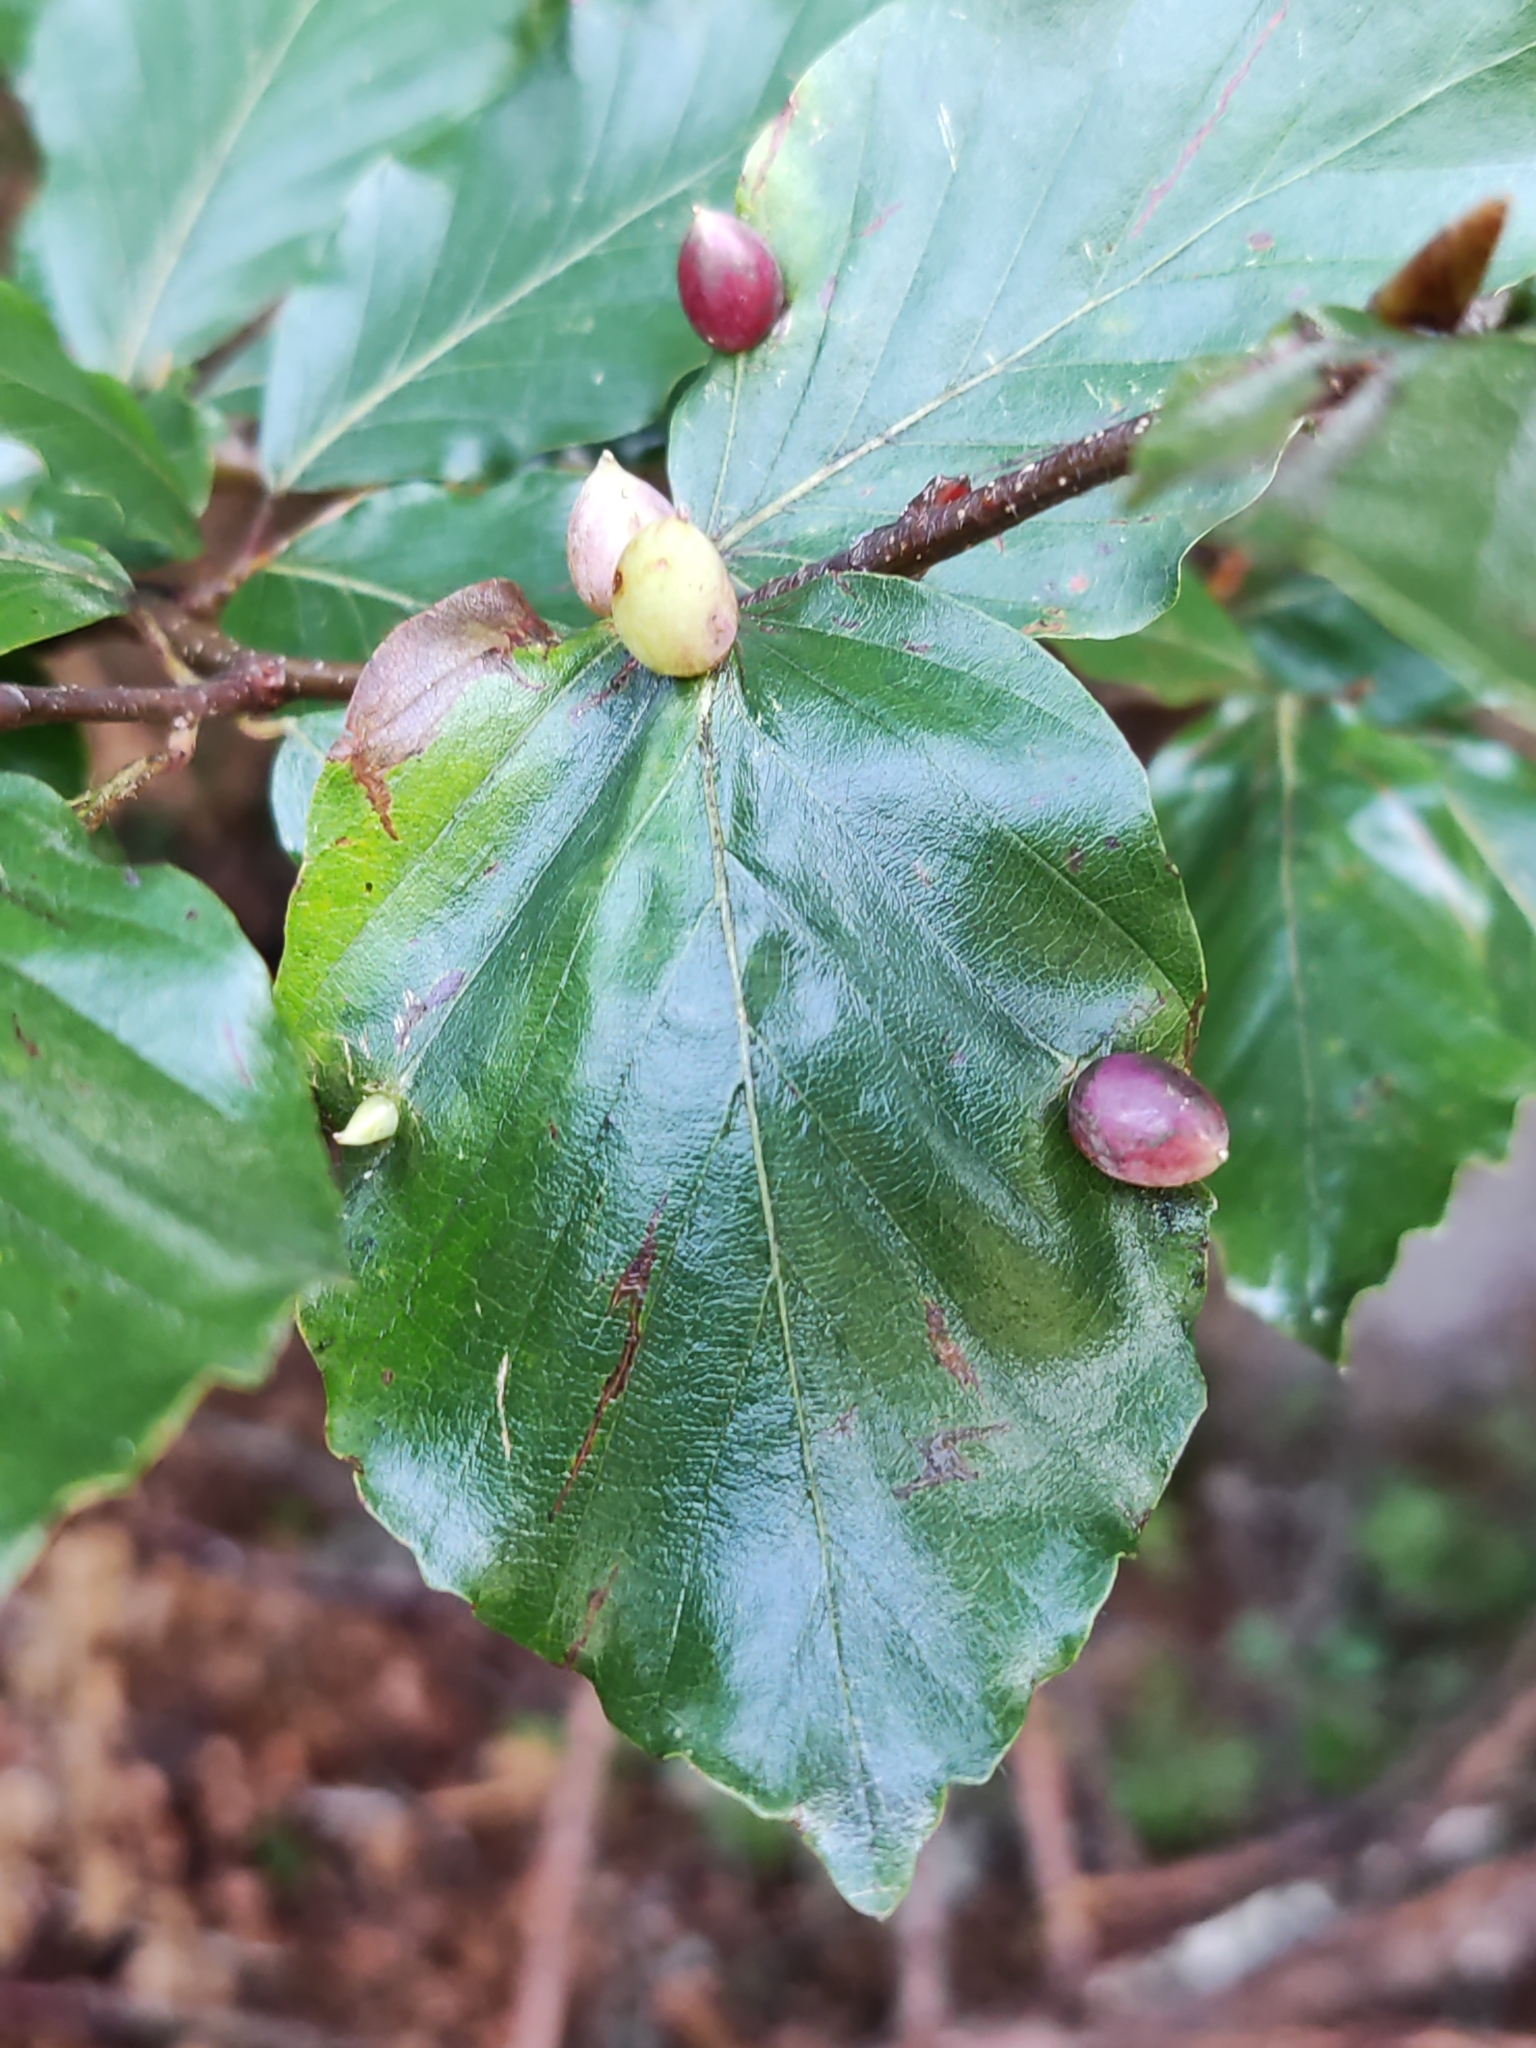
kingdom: Animalia
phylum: Arthropoda
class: Insecta
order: Diptera
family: Cecidomyiidae
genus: Mikiola
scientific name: Mikiola fagi
